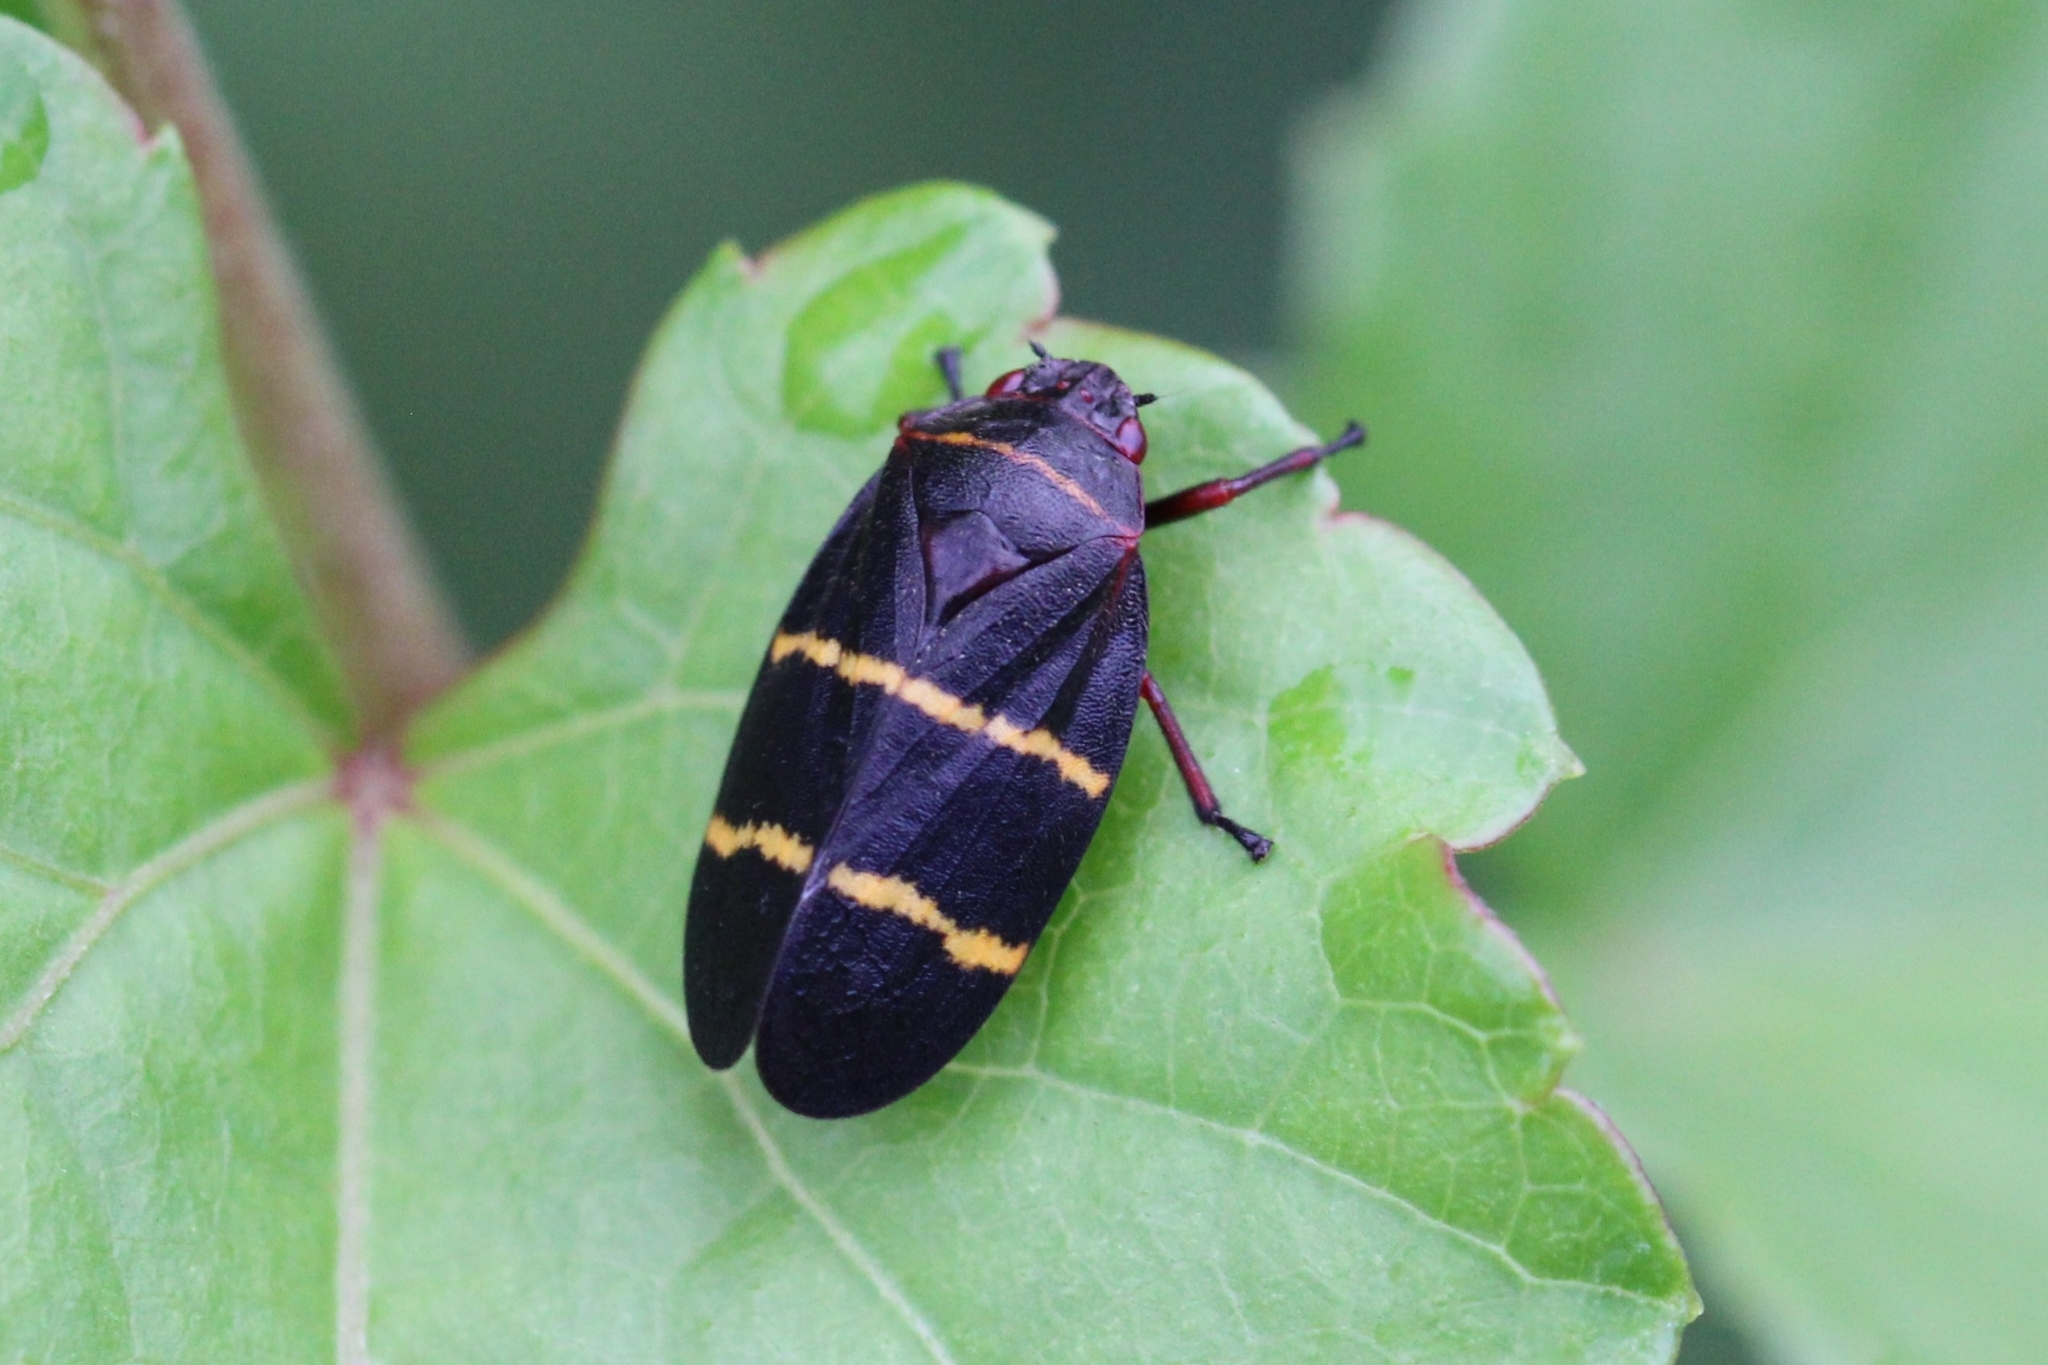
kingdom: Animalia
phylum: Arthropoda
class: Insecta
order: Hemiptera
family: Cercopidae
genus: Prosapia
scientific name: Prosapia bicincta
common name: Twolined spittlebug
